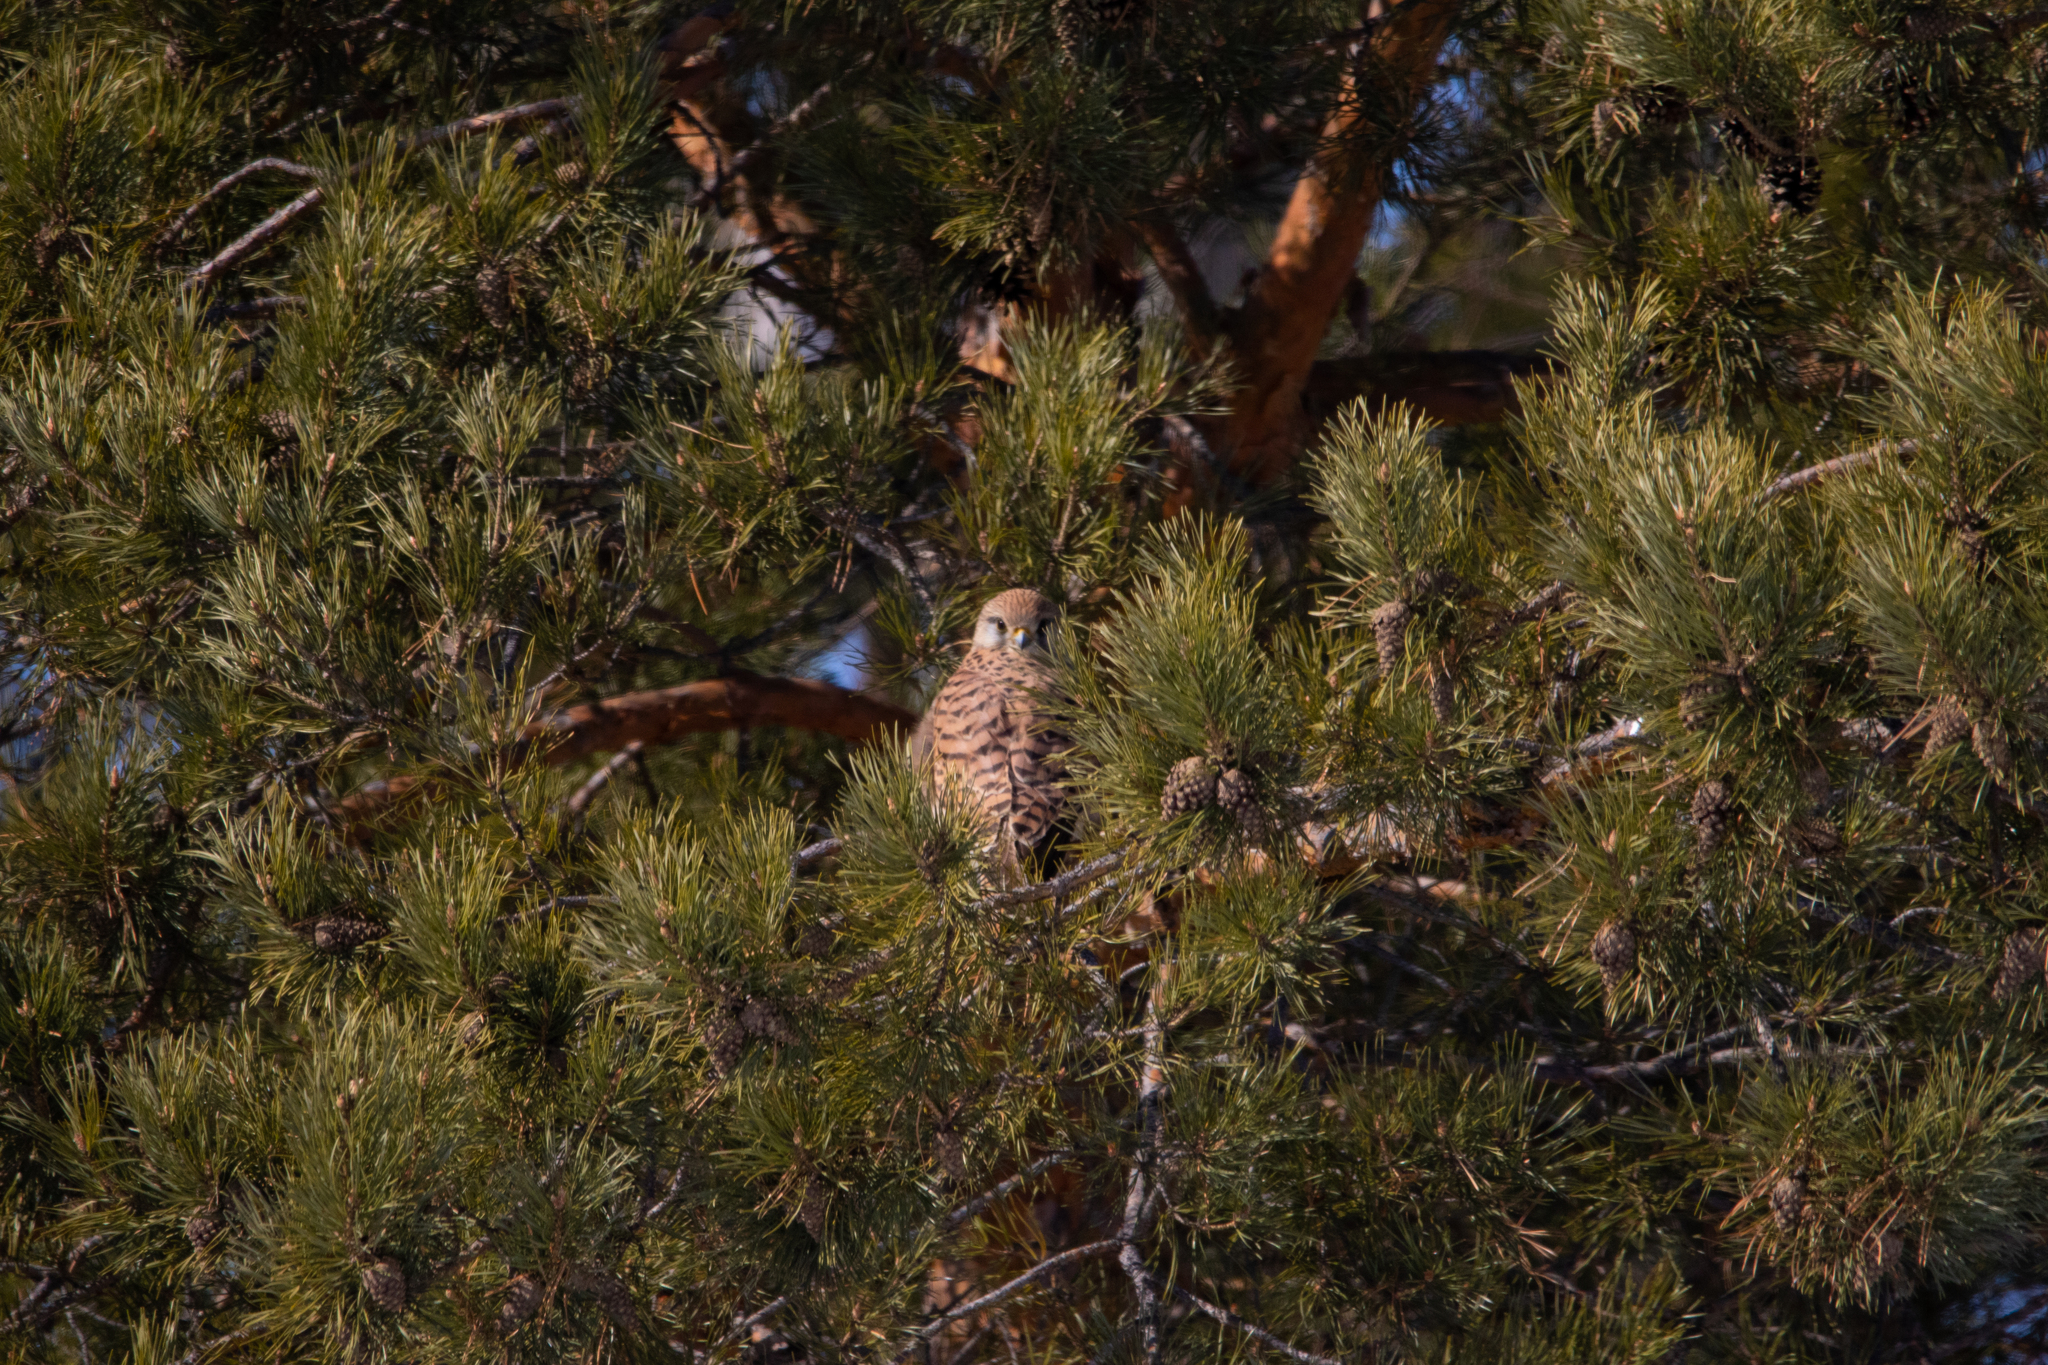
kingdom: Animalia
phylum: Chordata
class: Aves
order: Falconiformes
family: Falconidae
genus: Falco
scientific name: Falco tinnunculus
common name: Common kestrel
